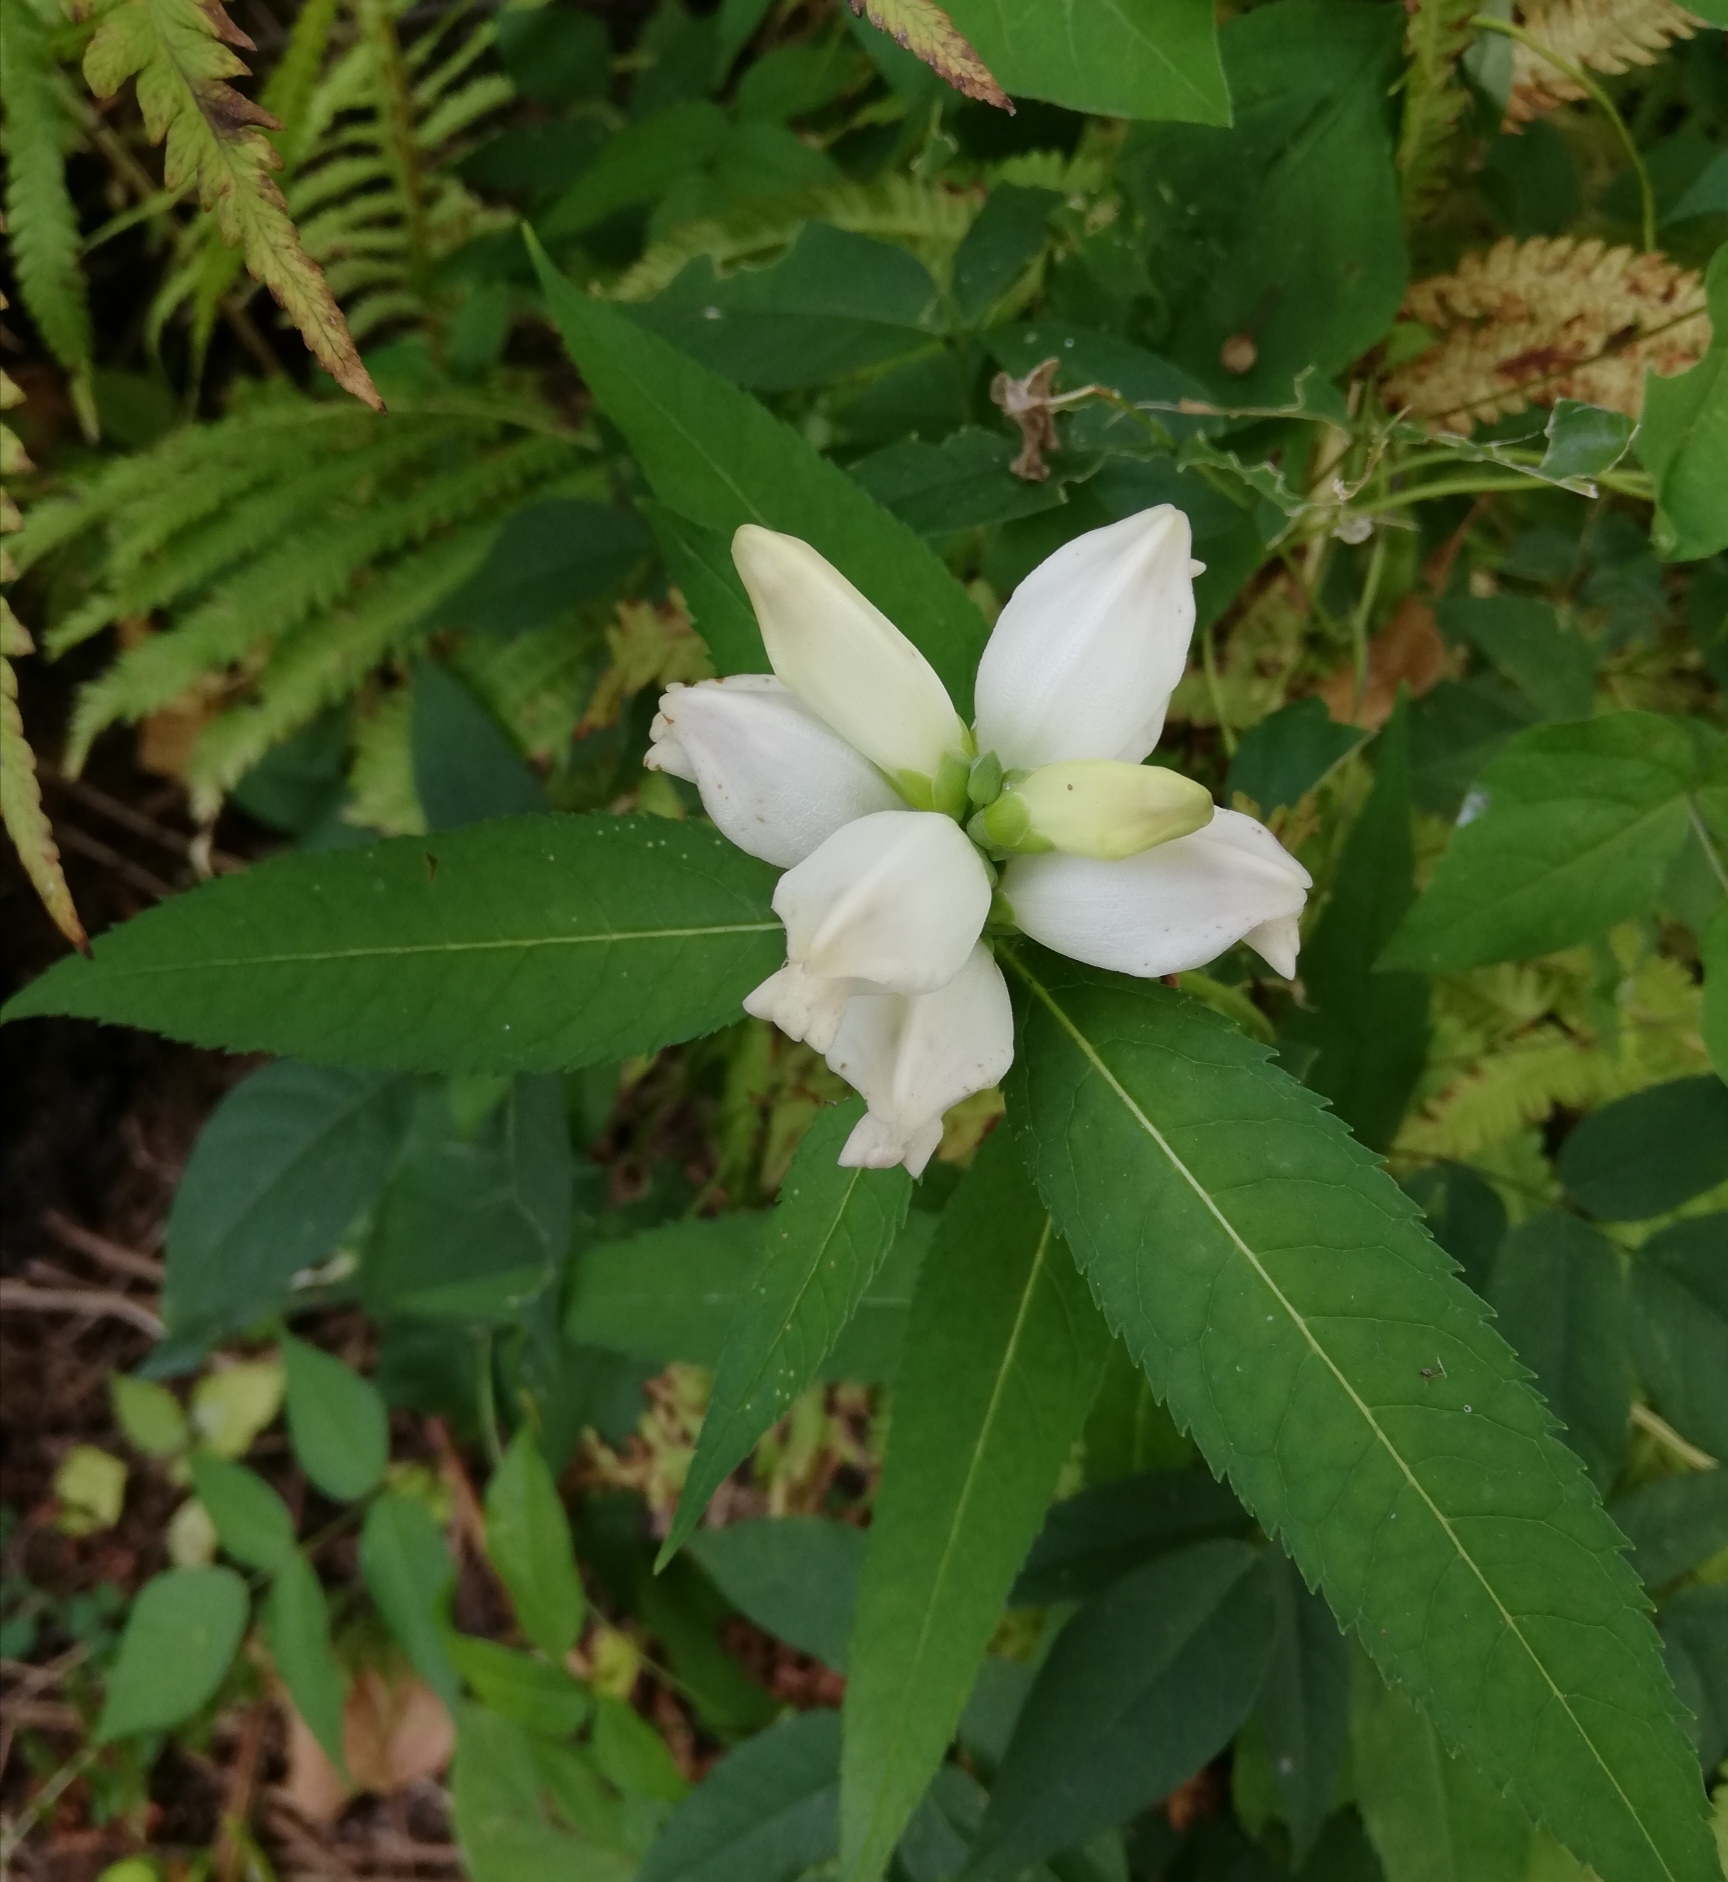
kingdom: Plantae
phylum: Tracheophyta
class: Magnoliopsida
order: Lamiales
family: Plantaginaceae
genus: Chelone
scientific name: Chelone glabra
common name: Snakehead
